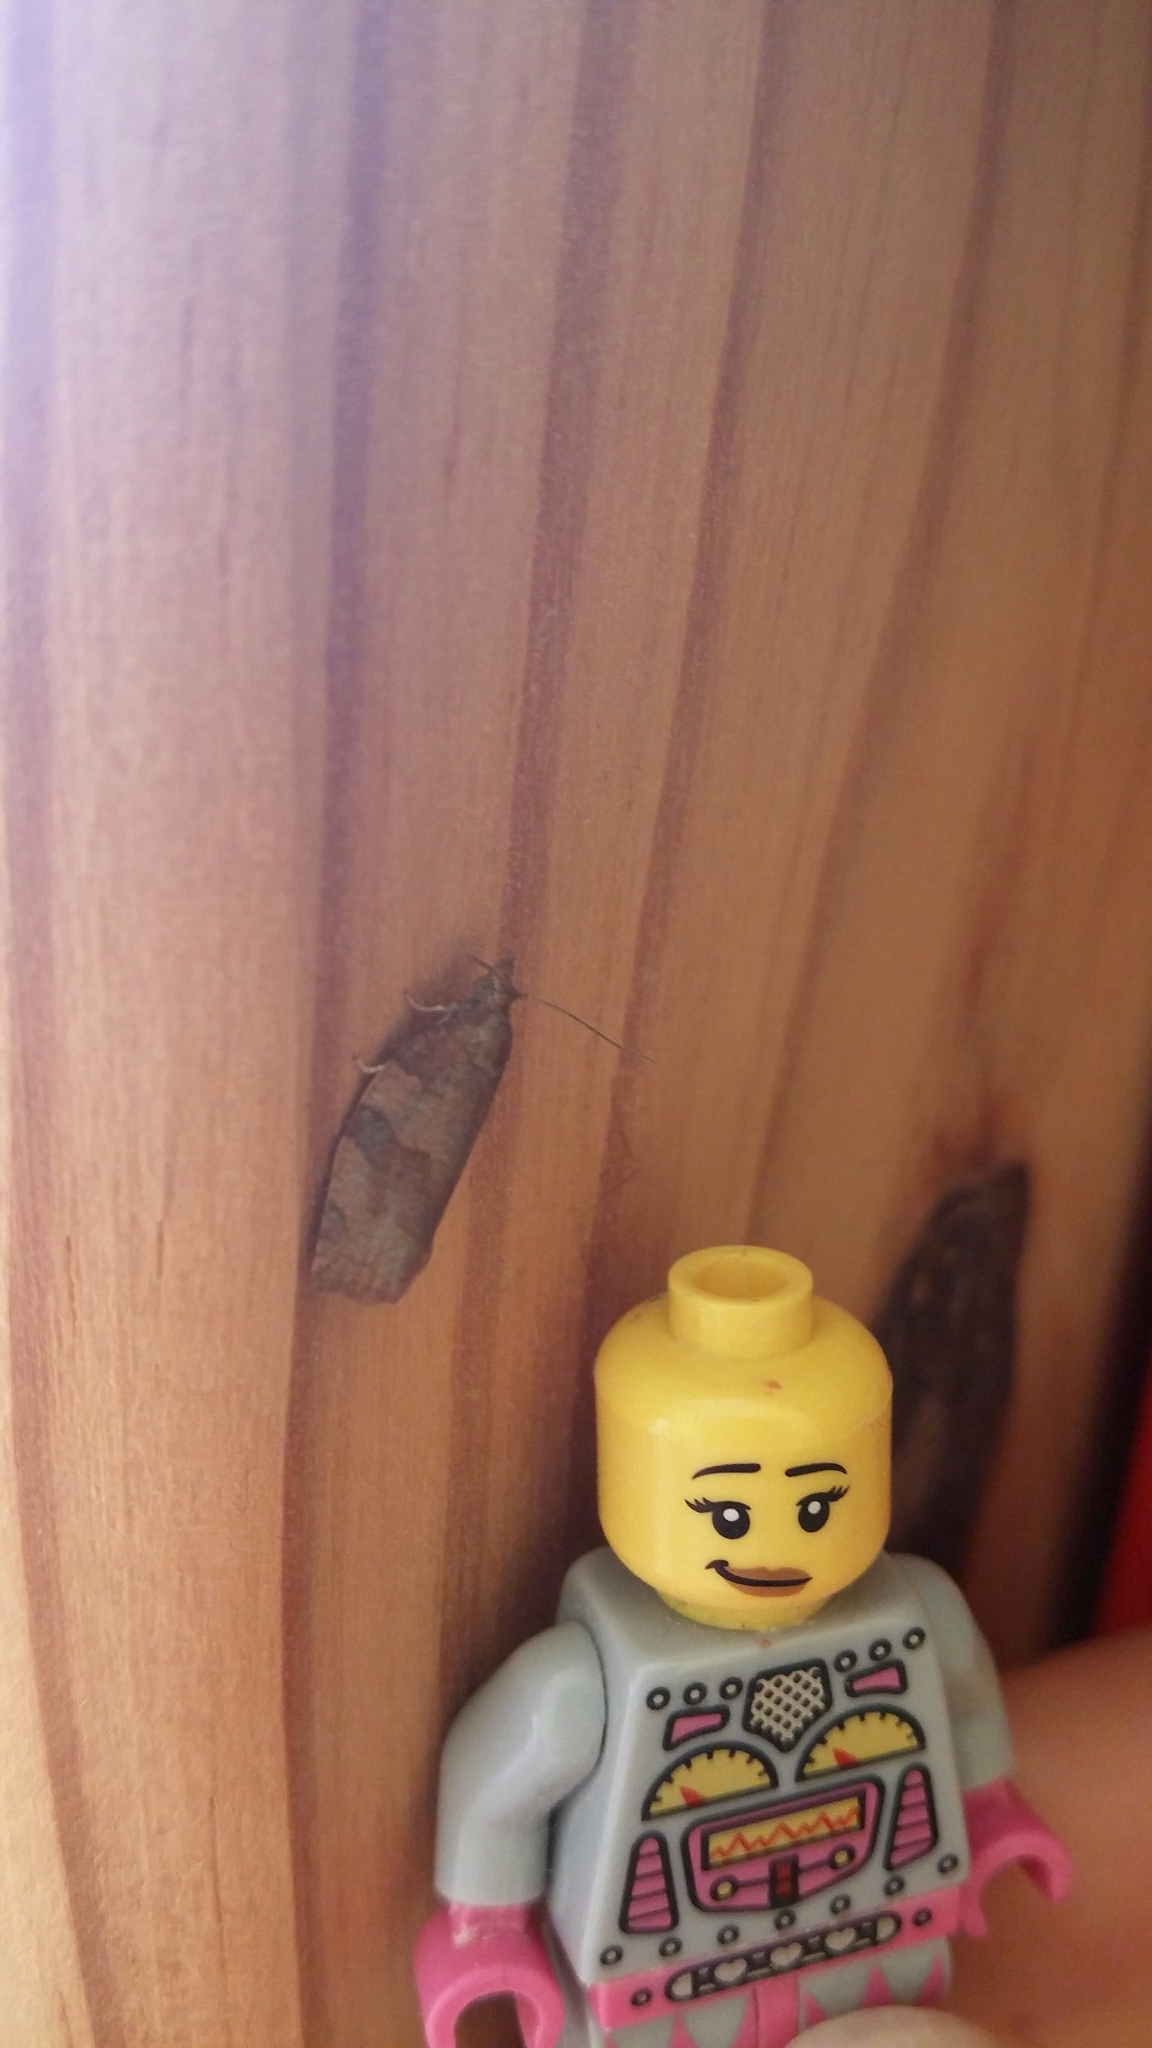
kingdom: Animalia
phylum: Arthropoda
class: Insecta
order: Lepidoptera
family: Tortricidae
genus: Pandemis
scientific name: Pandemis cerasana
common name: Barred fruit-tree tortrix
